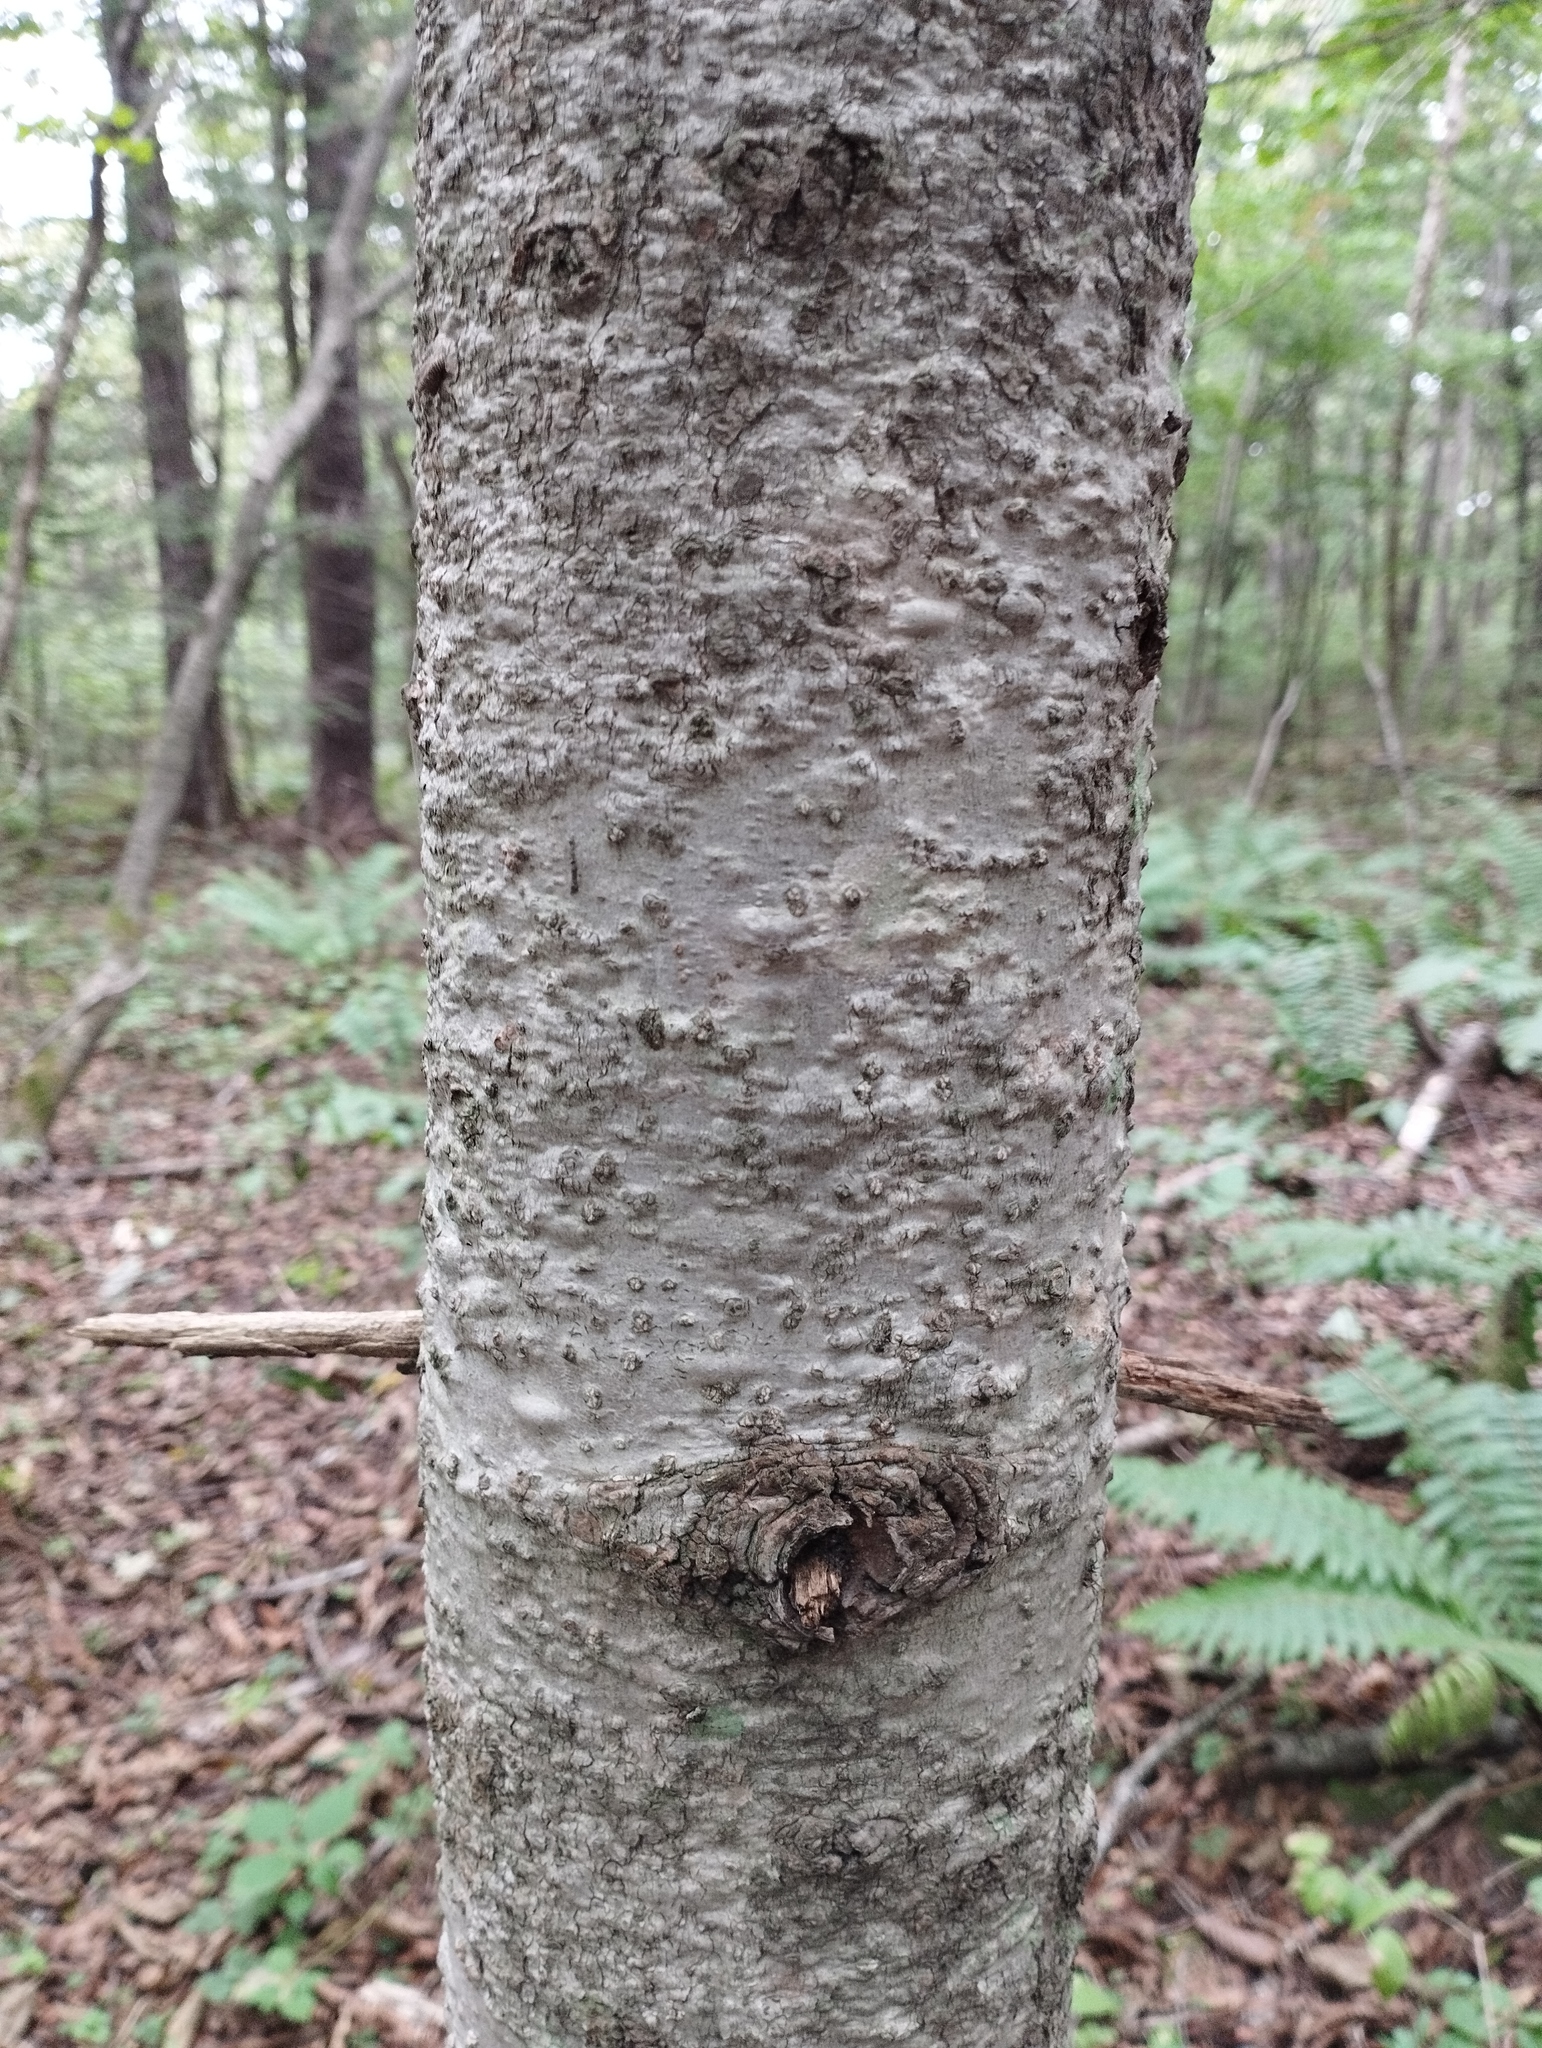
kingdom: Plantae
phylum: Tracheophyta
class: Pinopsida
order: Pinales
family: Pinaceae
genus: Abies
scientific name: Abies nephrolepis
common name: Hinggan fir
